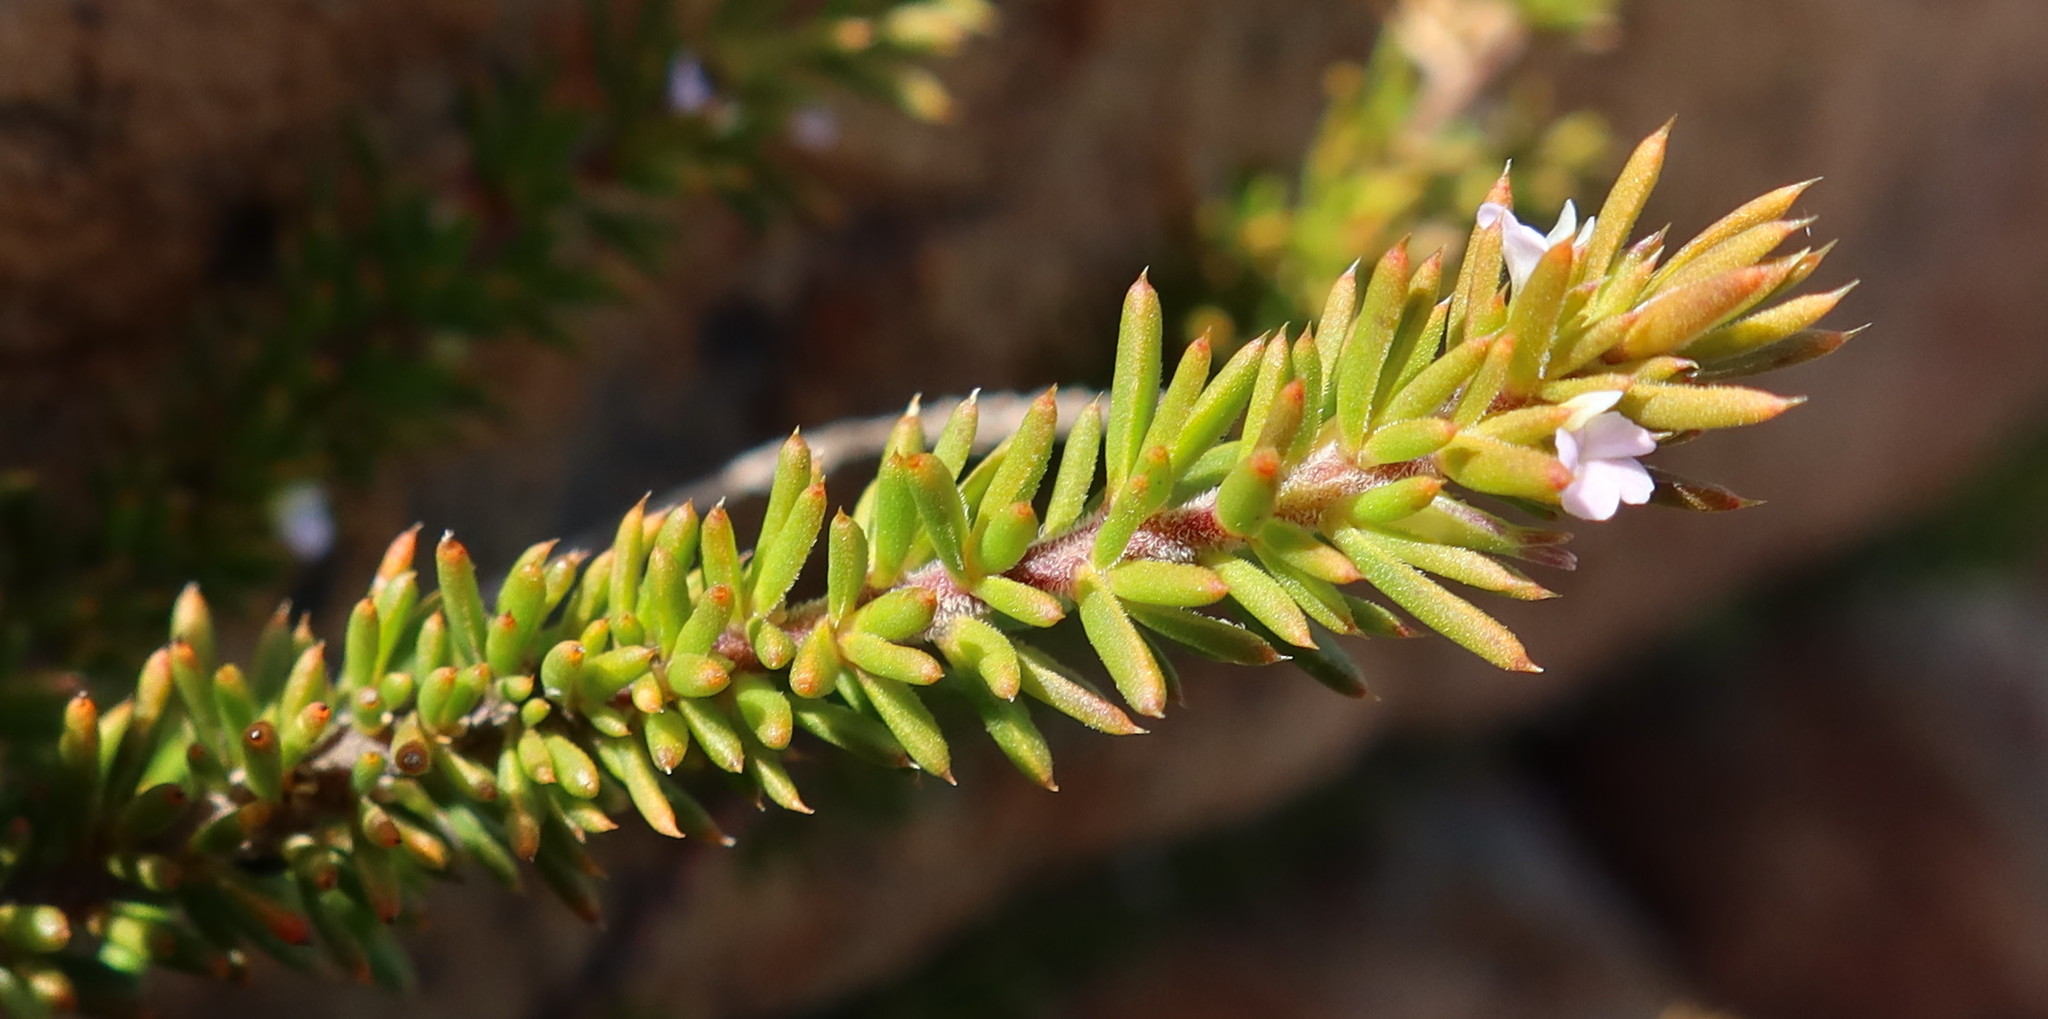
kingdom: Plantae
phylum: Tracheophyta
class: Magnoliopsida
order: Fabales
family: Polygalaceae
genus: Muraltia
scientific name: Muraltia satureioides
